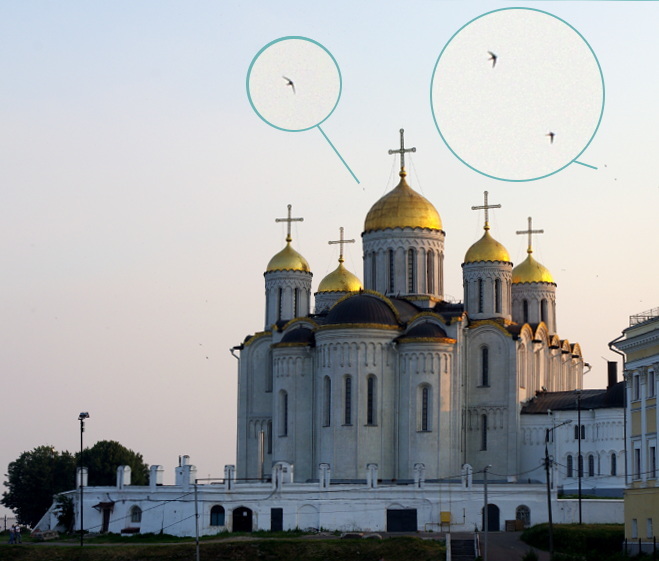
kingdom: Animalia
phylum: Chordata
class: Aves
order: Apodiformes
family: Apodidae
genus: Apus
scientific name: Apus apus
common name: Common swift
